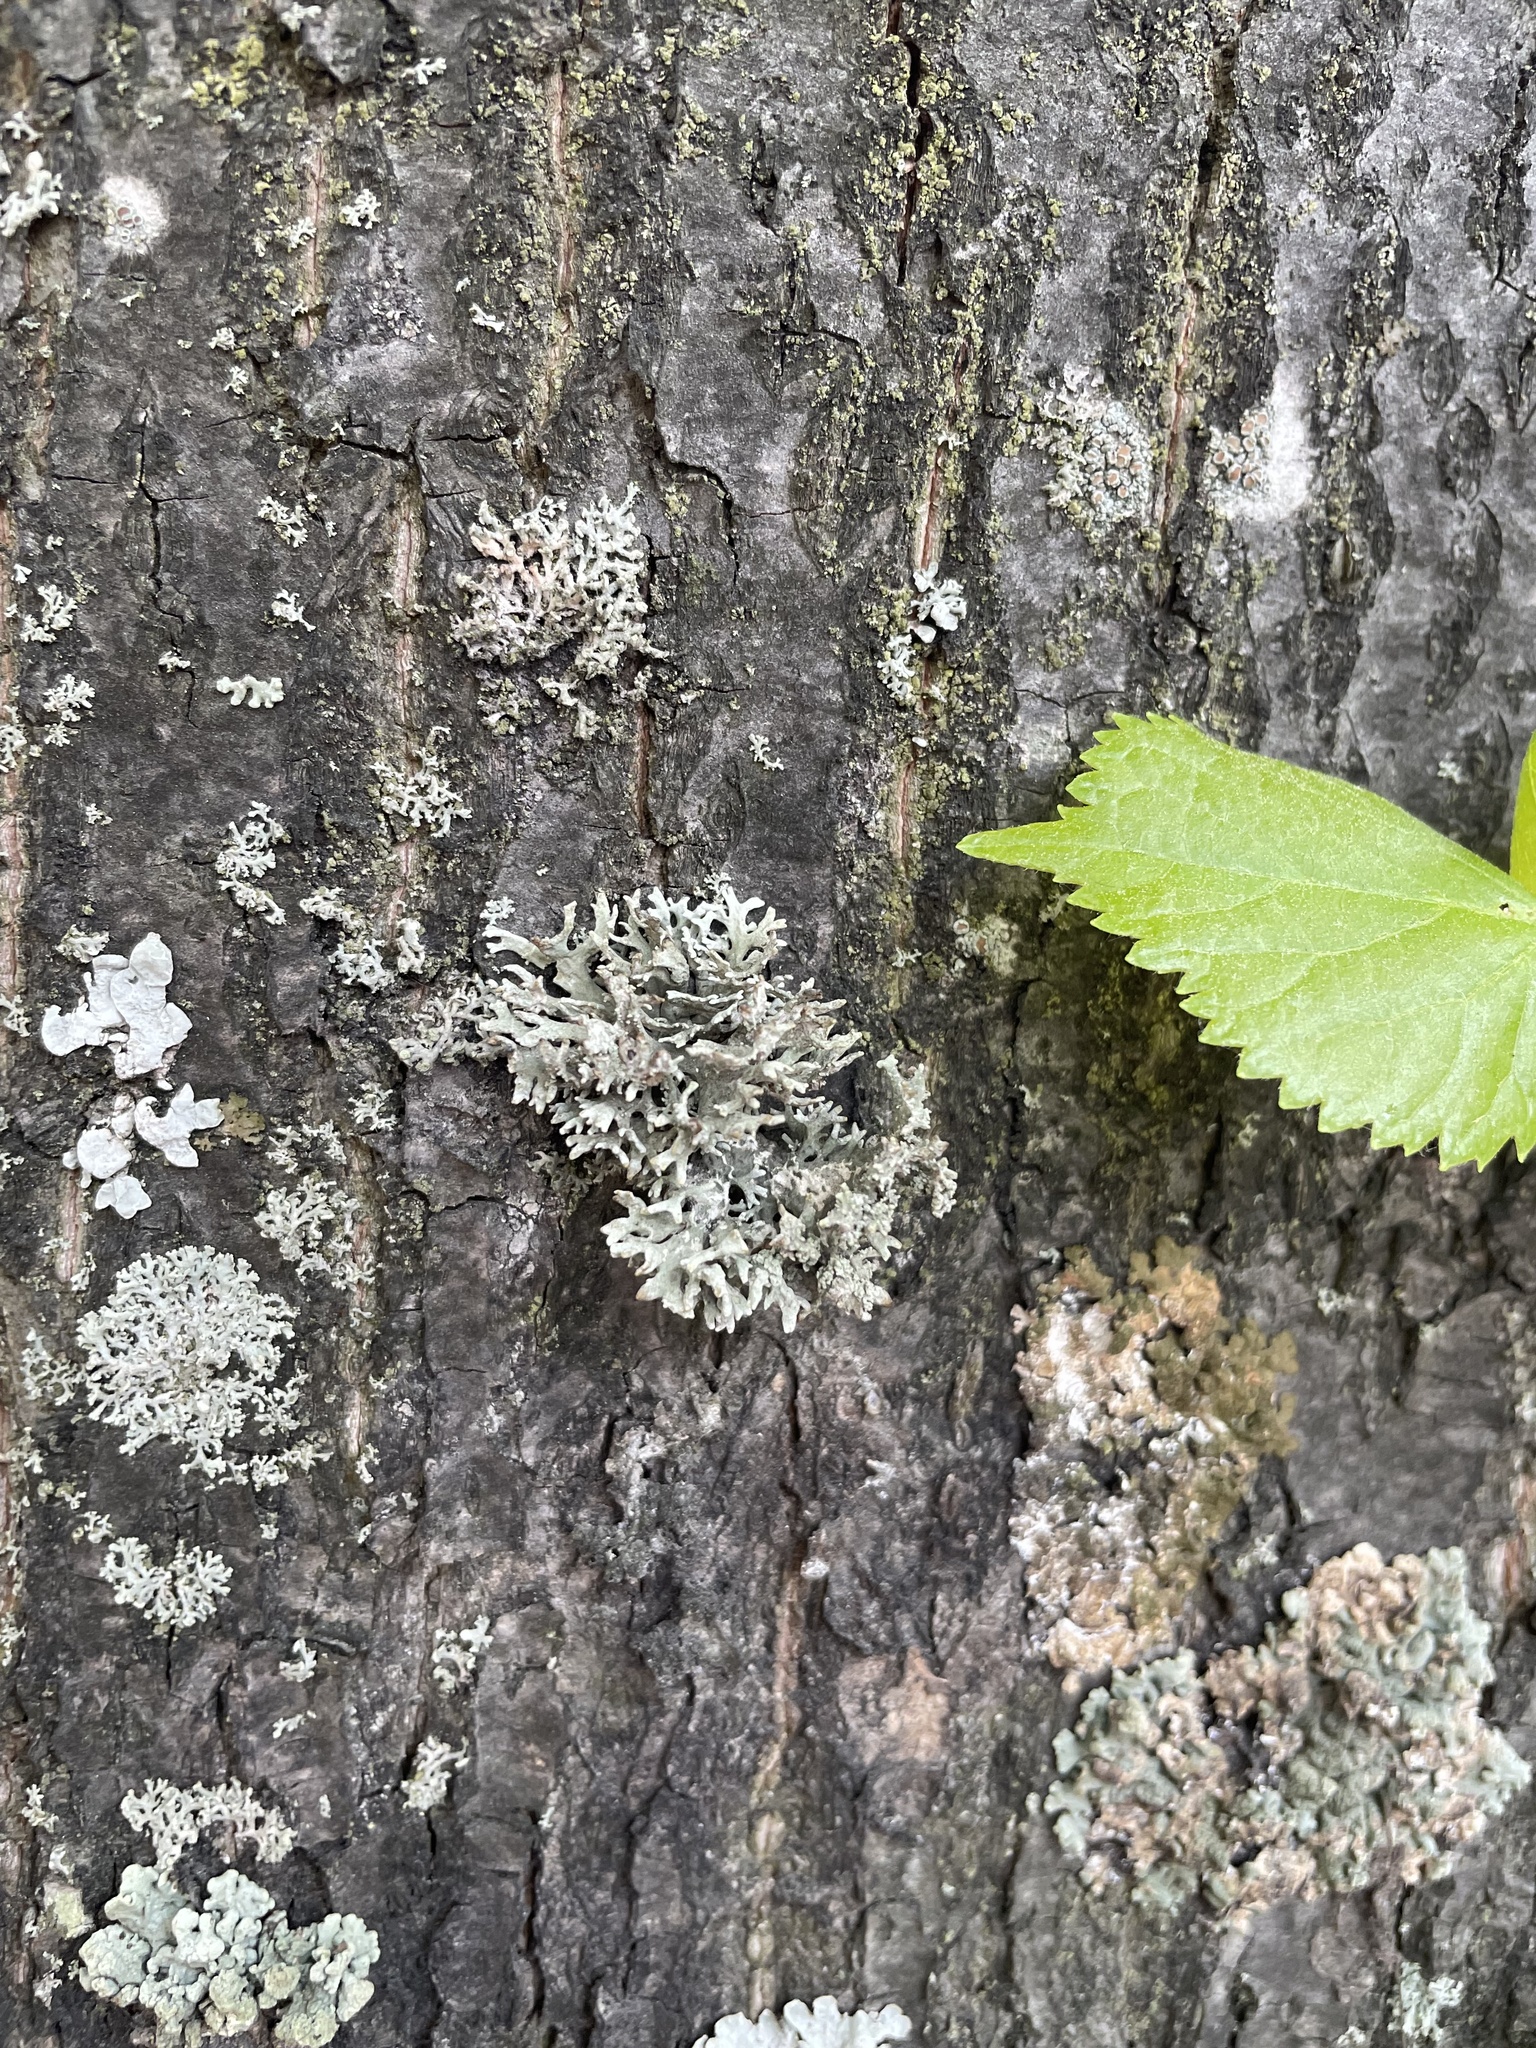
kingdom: Fungi
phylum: Ascomycota
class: Lecanoromycetes
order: Lecanorales
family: Parmeliaceae
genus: Evernia
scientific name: Evernia prunastri
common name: Oak moss
